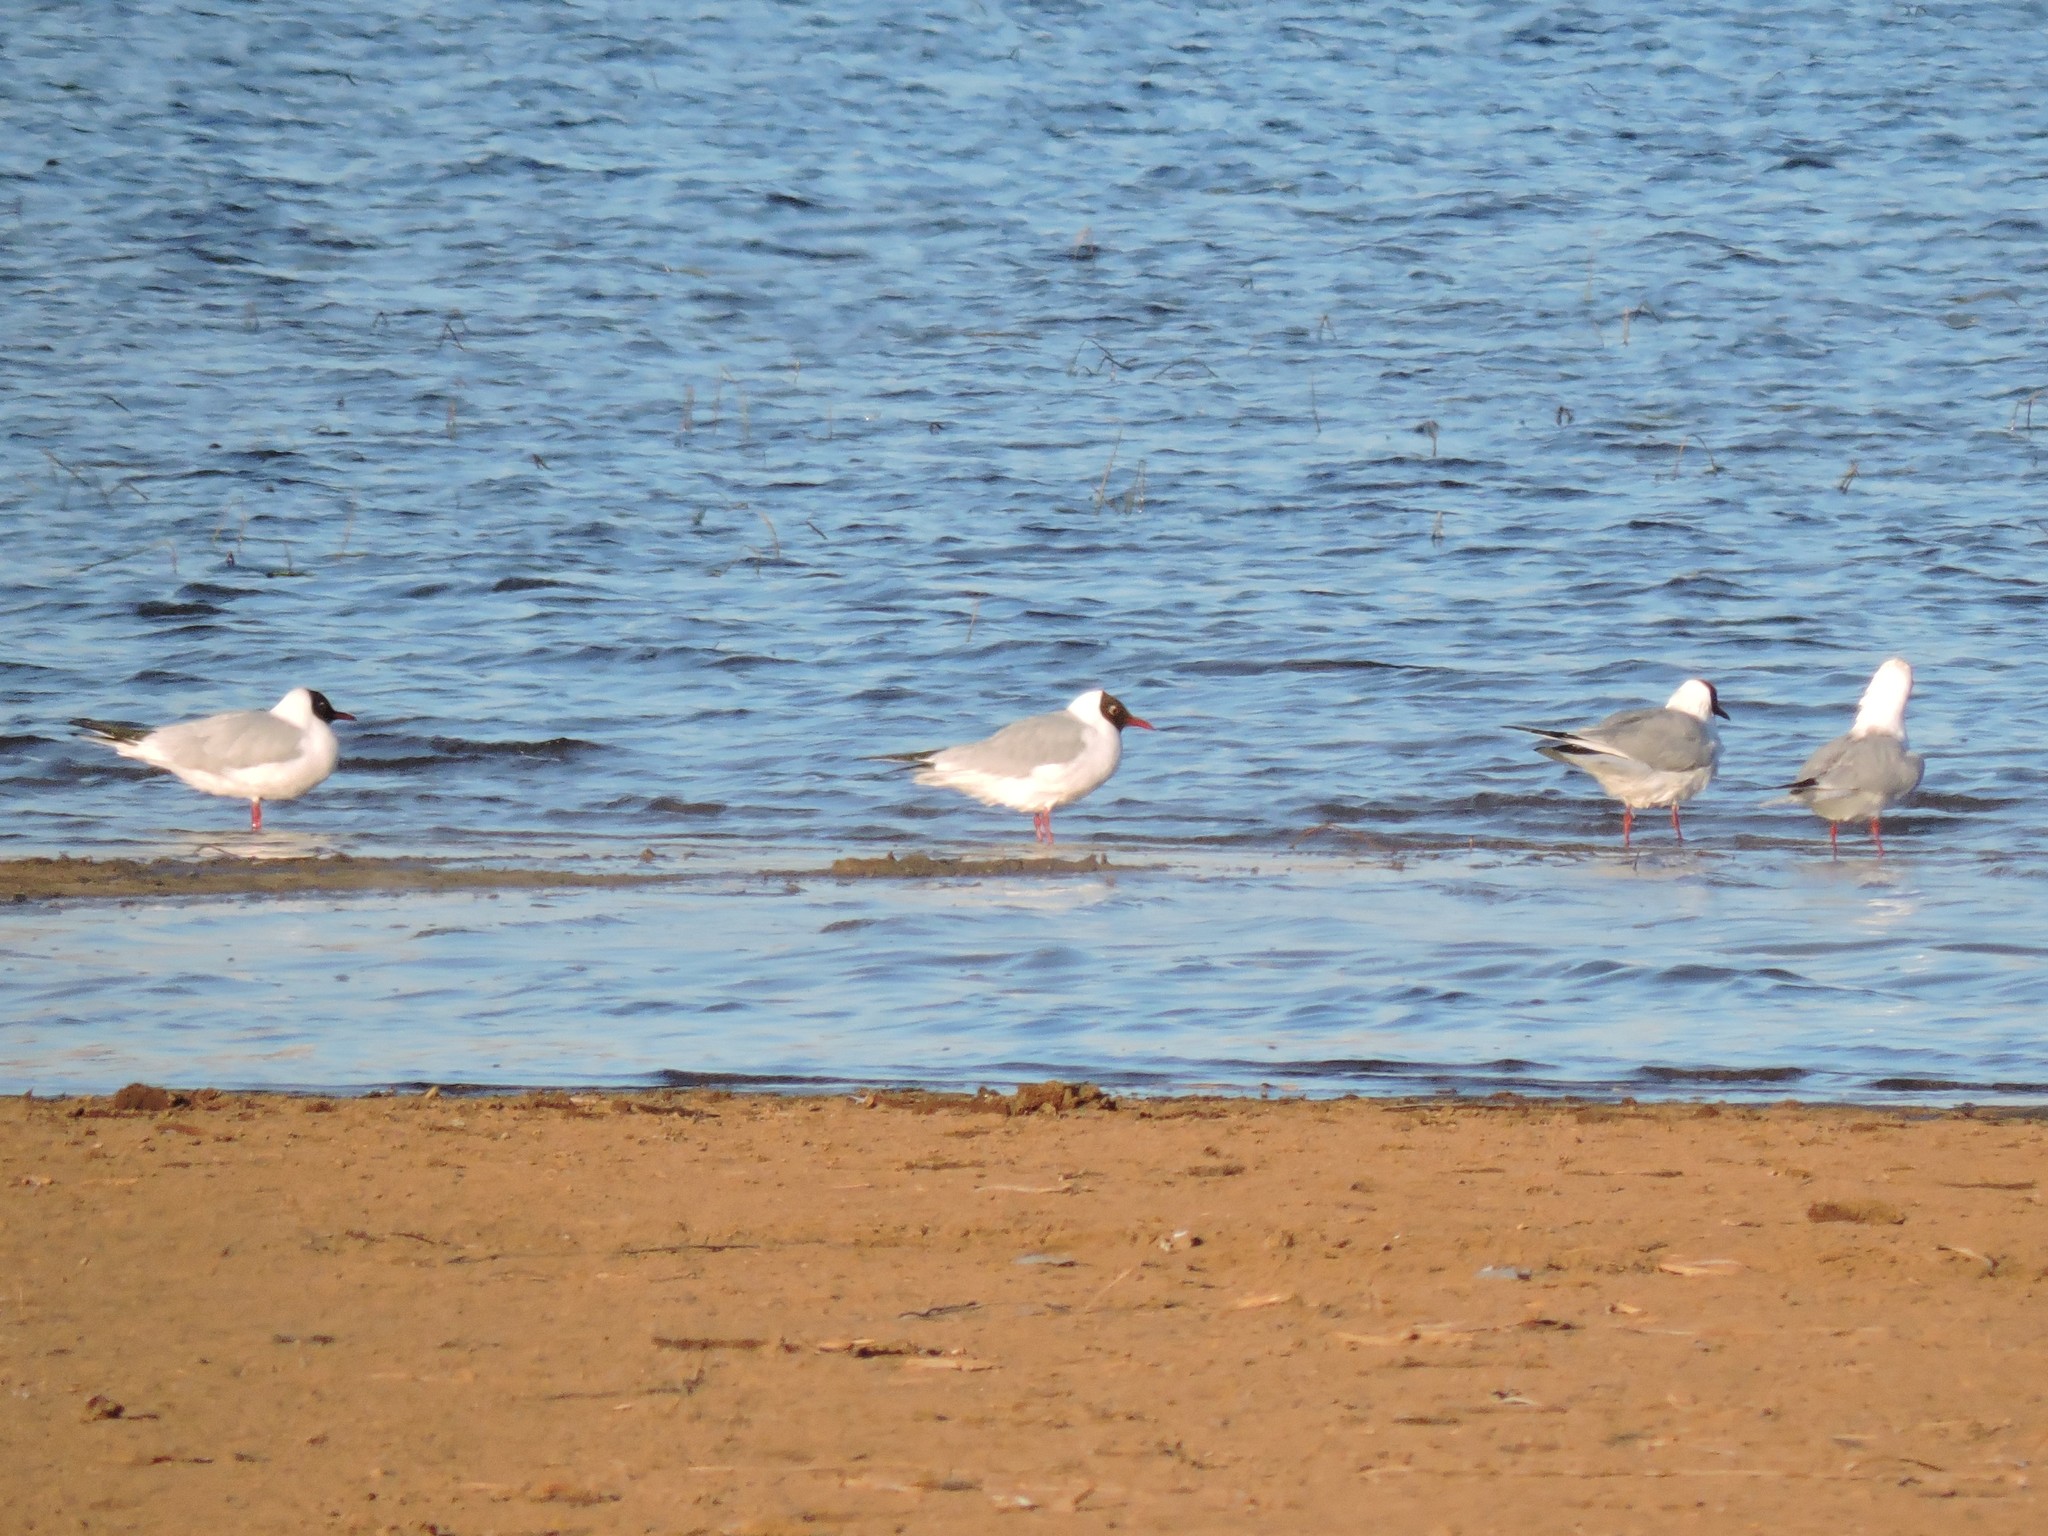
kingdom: Animalia
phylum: Chordata
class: Aves
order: Charadriiformes
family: Laridae
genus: Chroicocephalus
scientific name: Chroicocephalus ridibundus
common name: Black-headed gull
